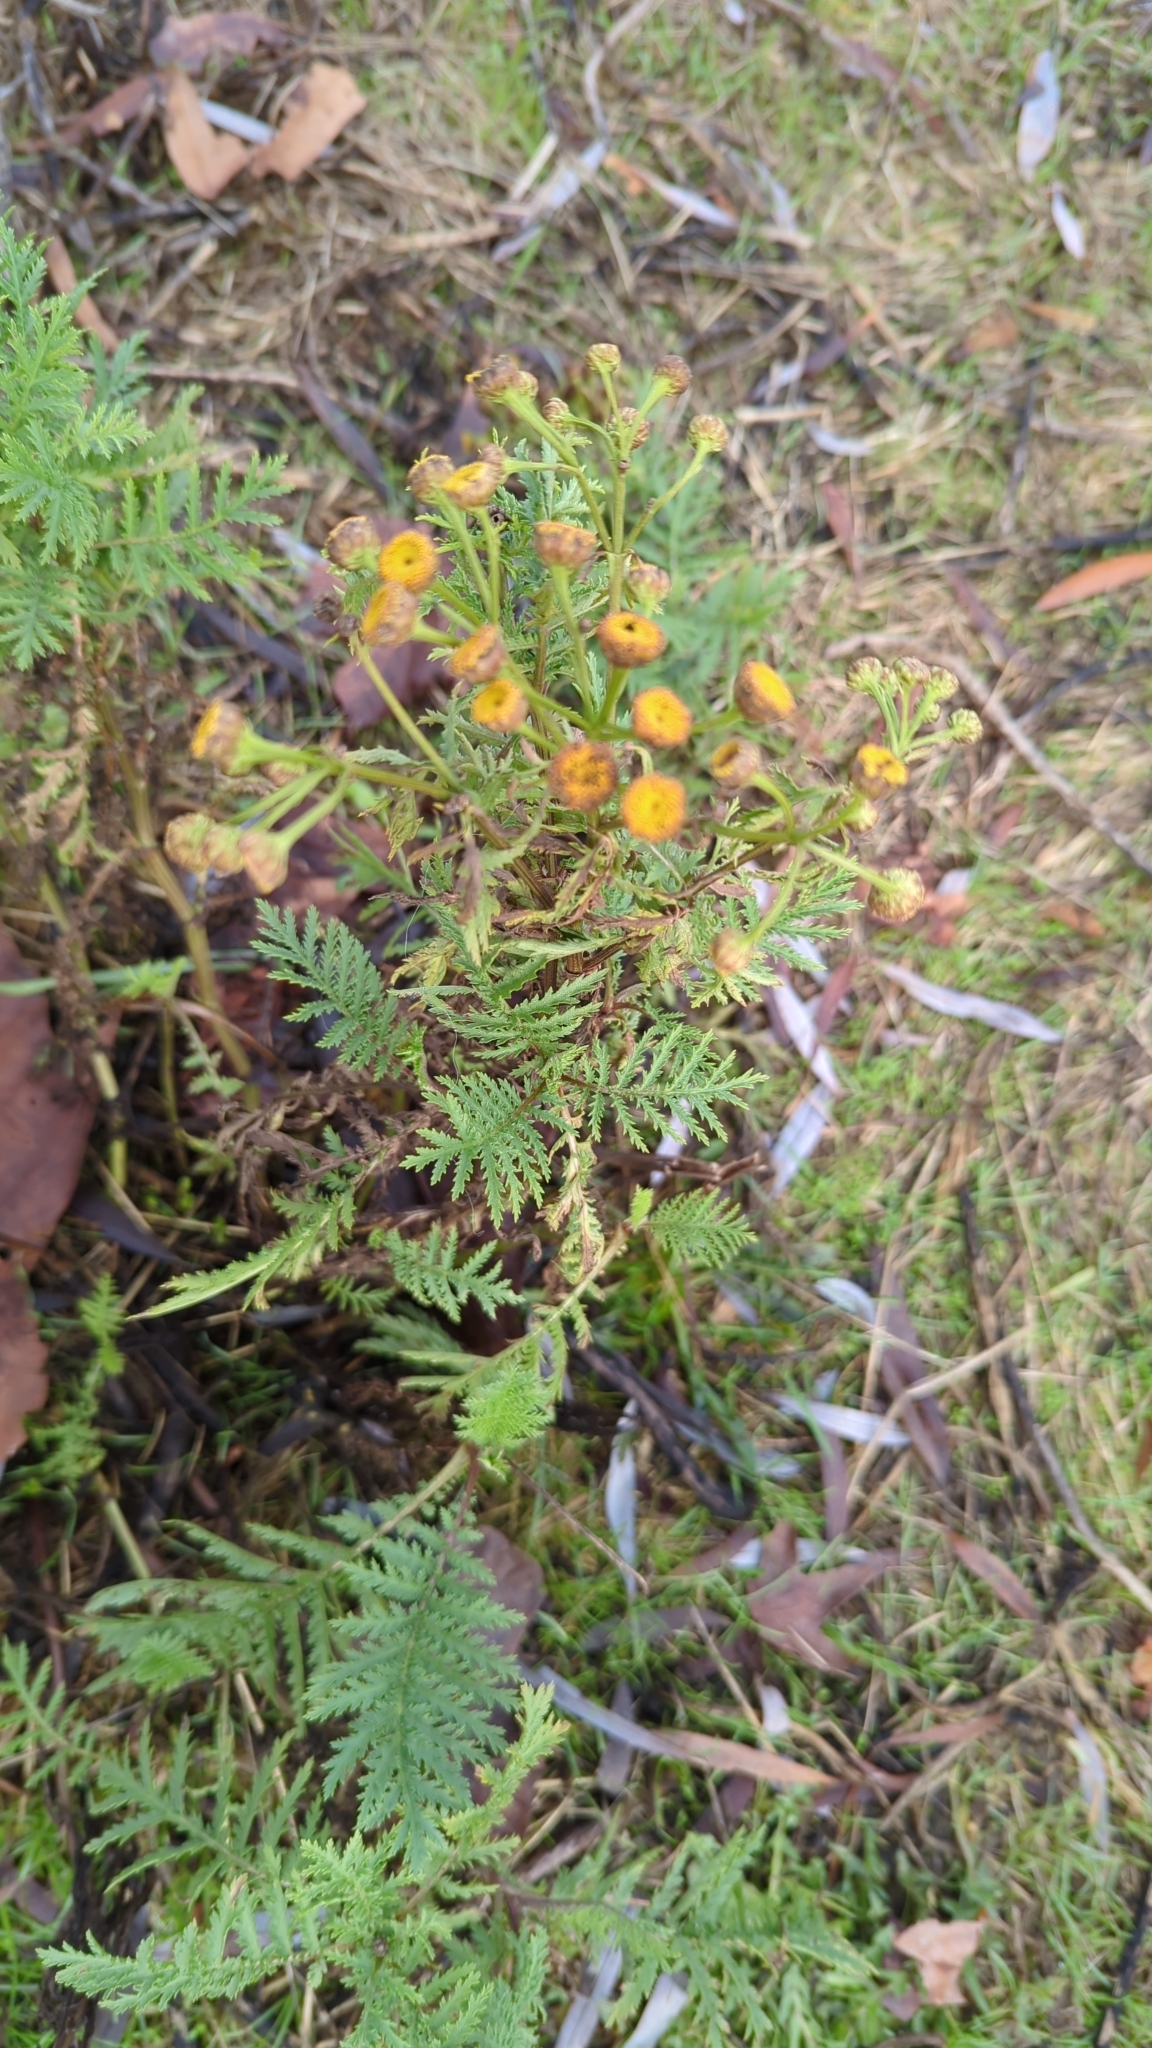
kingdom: Plantae
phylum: Tracheophyta
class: Magnoliopsida
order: Asterales
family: Asteraceae
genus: Tanacetum
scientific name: Tanacetum vulgare
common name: Common tansy
